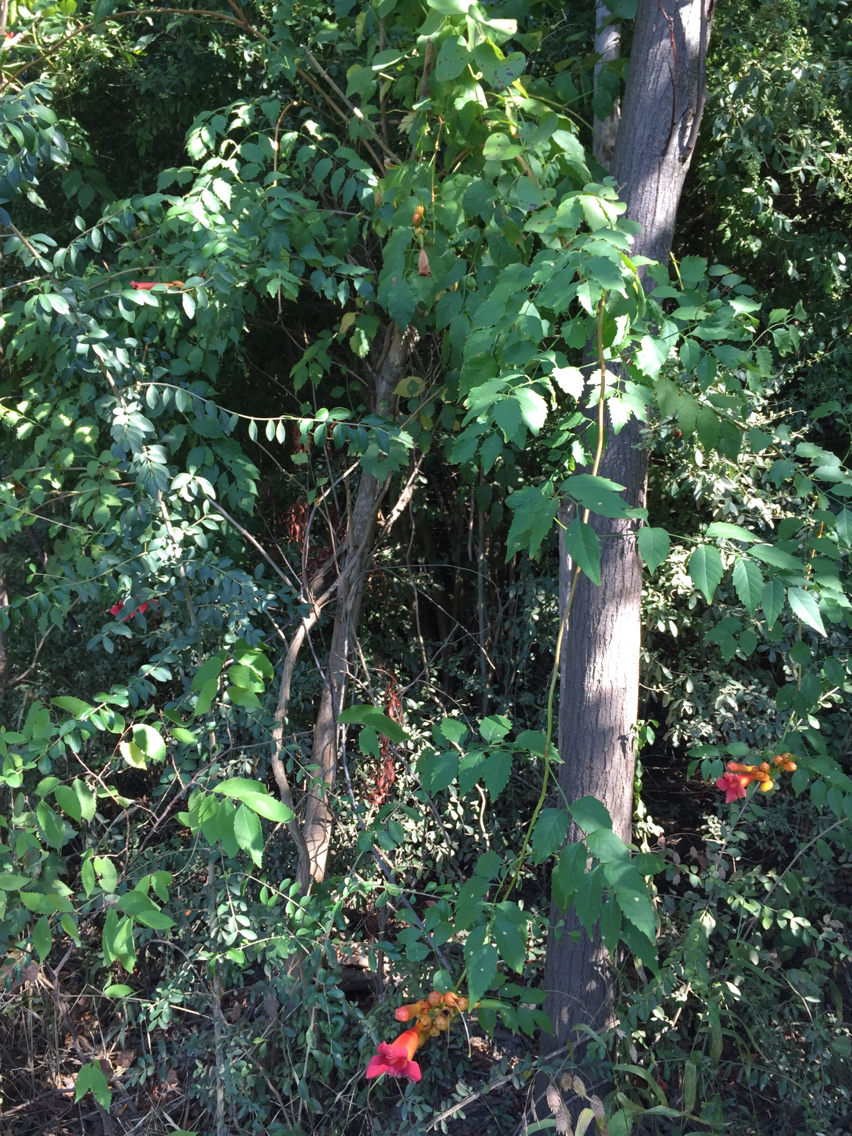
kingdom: Plantae
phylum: Tracheophyta
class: Magnoliopsida
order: Lamiales
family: Bignoniaceae
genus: Campsis
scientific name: Campsis radicans
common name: Trumpet-creeper
